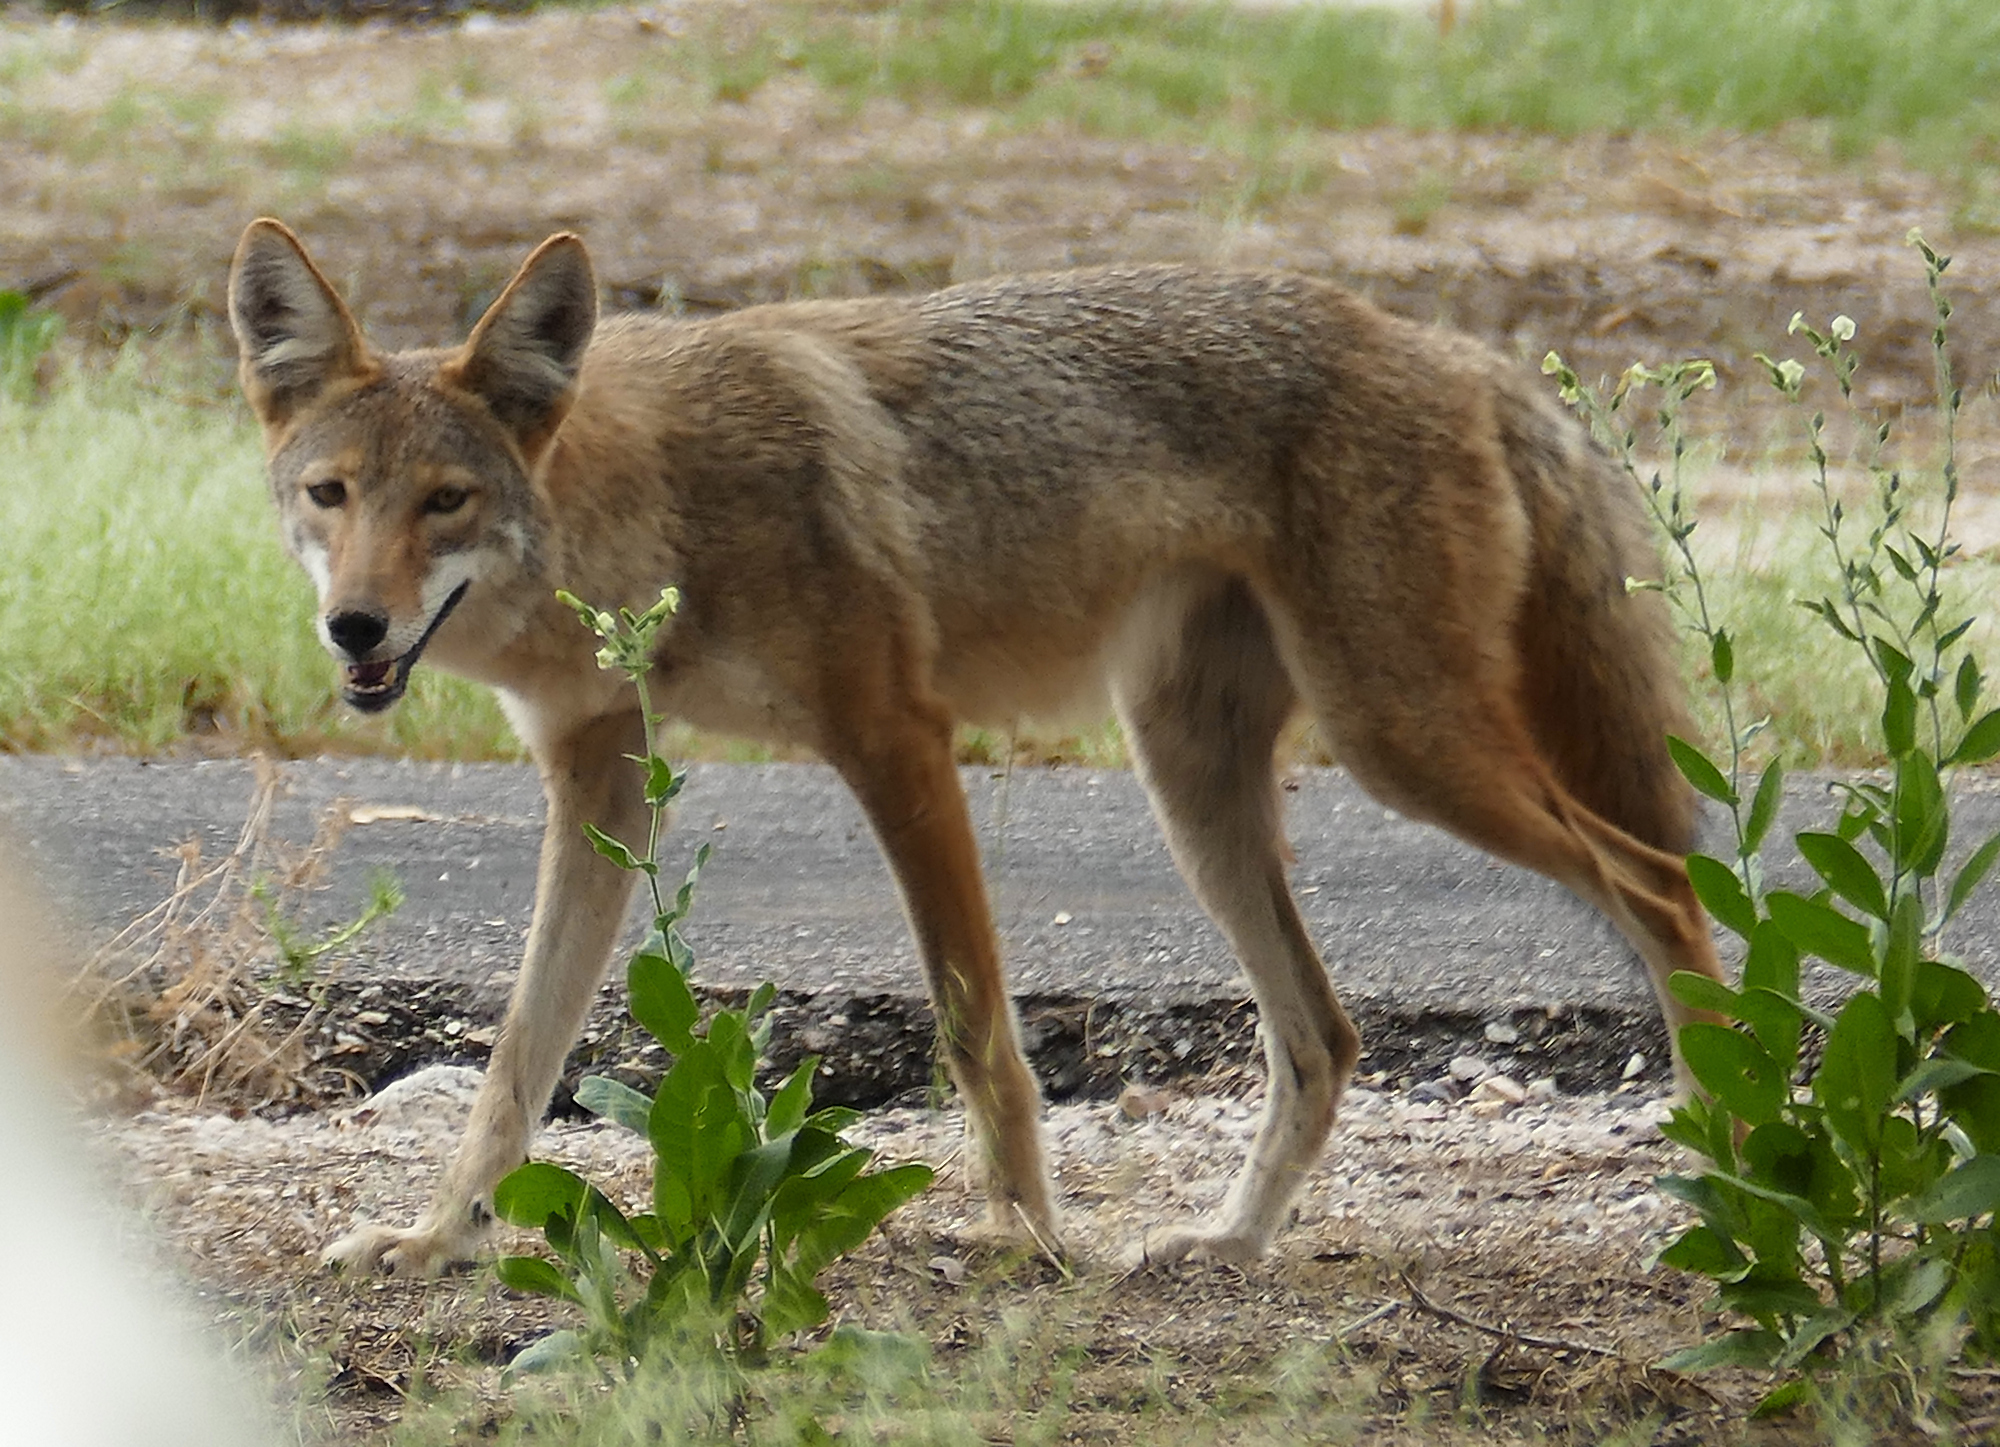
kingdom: Animalia
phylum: Chordata
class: Mammalia
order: Carnivora
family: Canidae
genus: Canis
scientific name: Canis latrans
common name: Coyote
